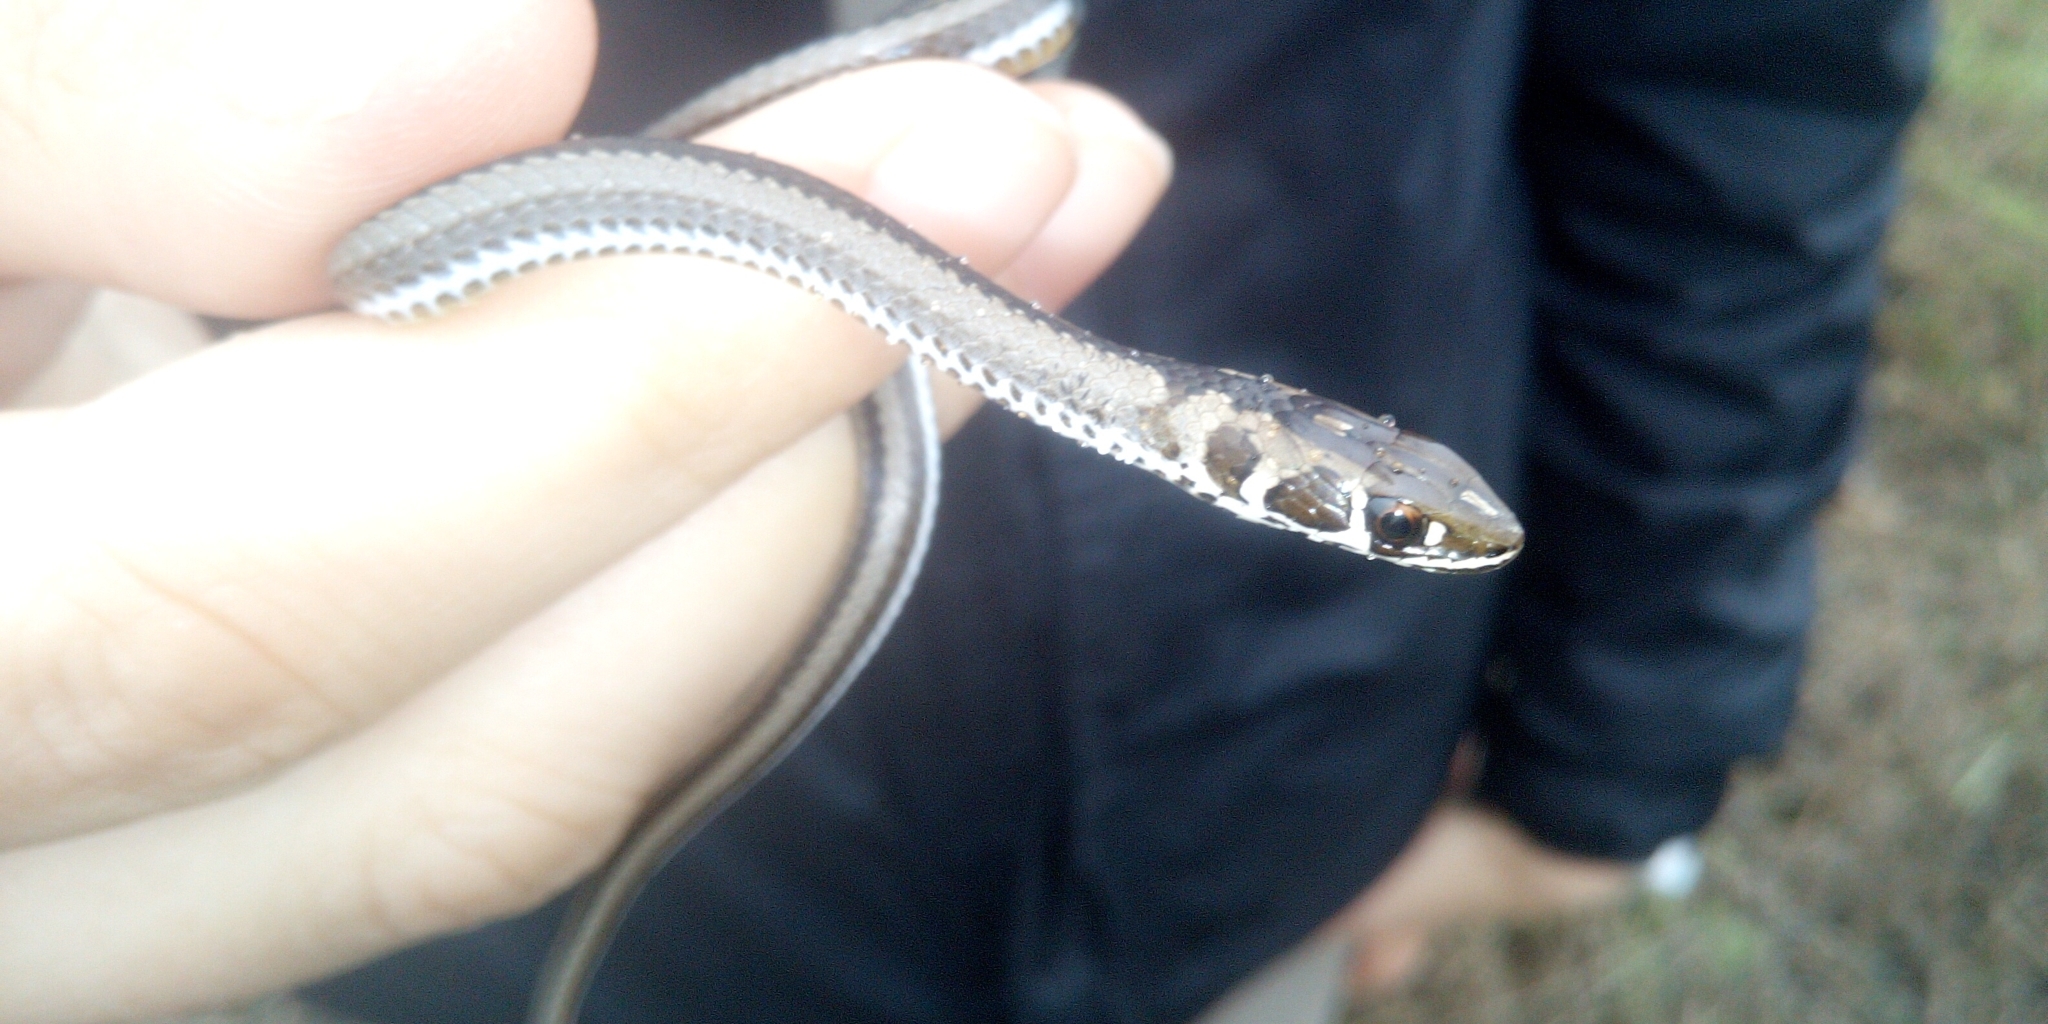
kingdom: Animalia
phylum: Chordata
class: Squamata
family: Psammophiidae
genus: Psammophis
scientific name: Psammophis crucifer
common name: Cross-marked grass snake
